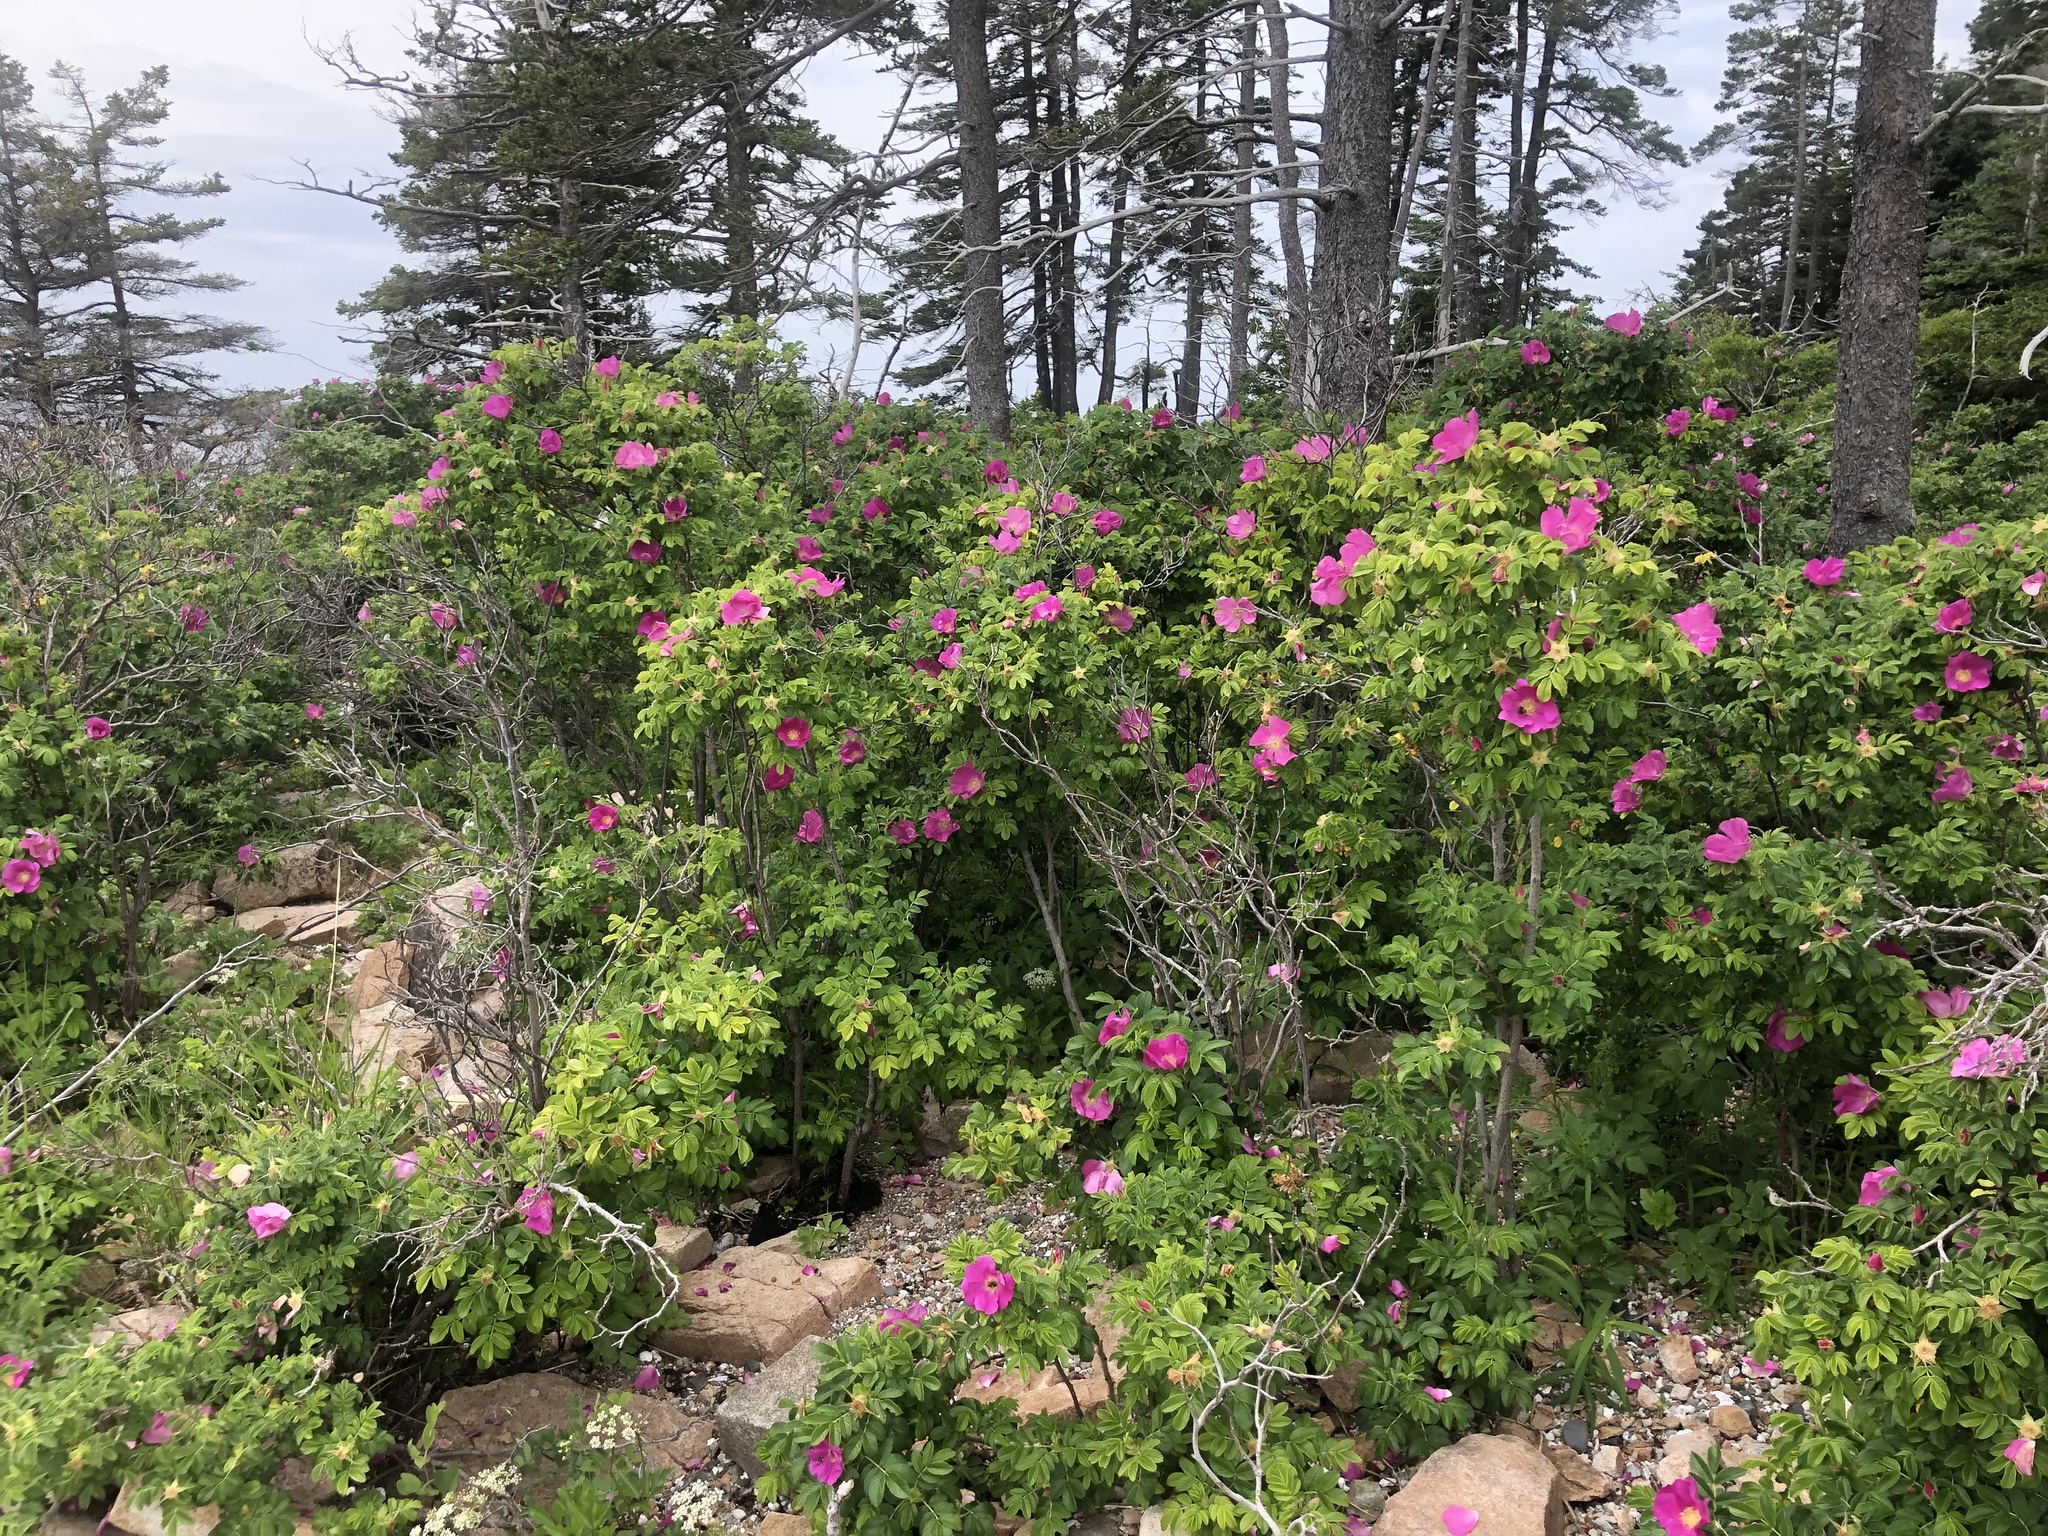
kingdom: Plantae
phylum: Tracheophyta
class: Magnoliopsida
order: Rosales
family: Rosaceae
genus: Rosa
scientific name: Rosa rugosa
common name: Japanese rose
